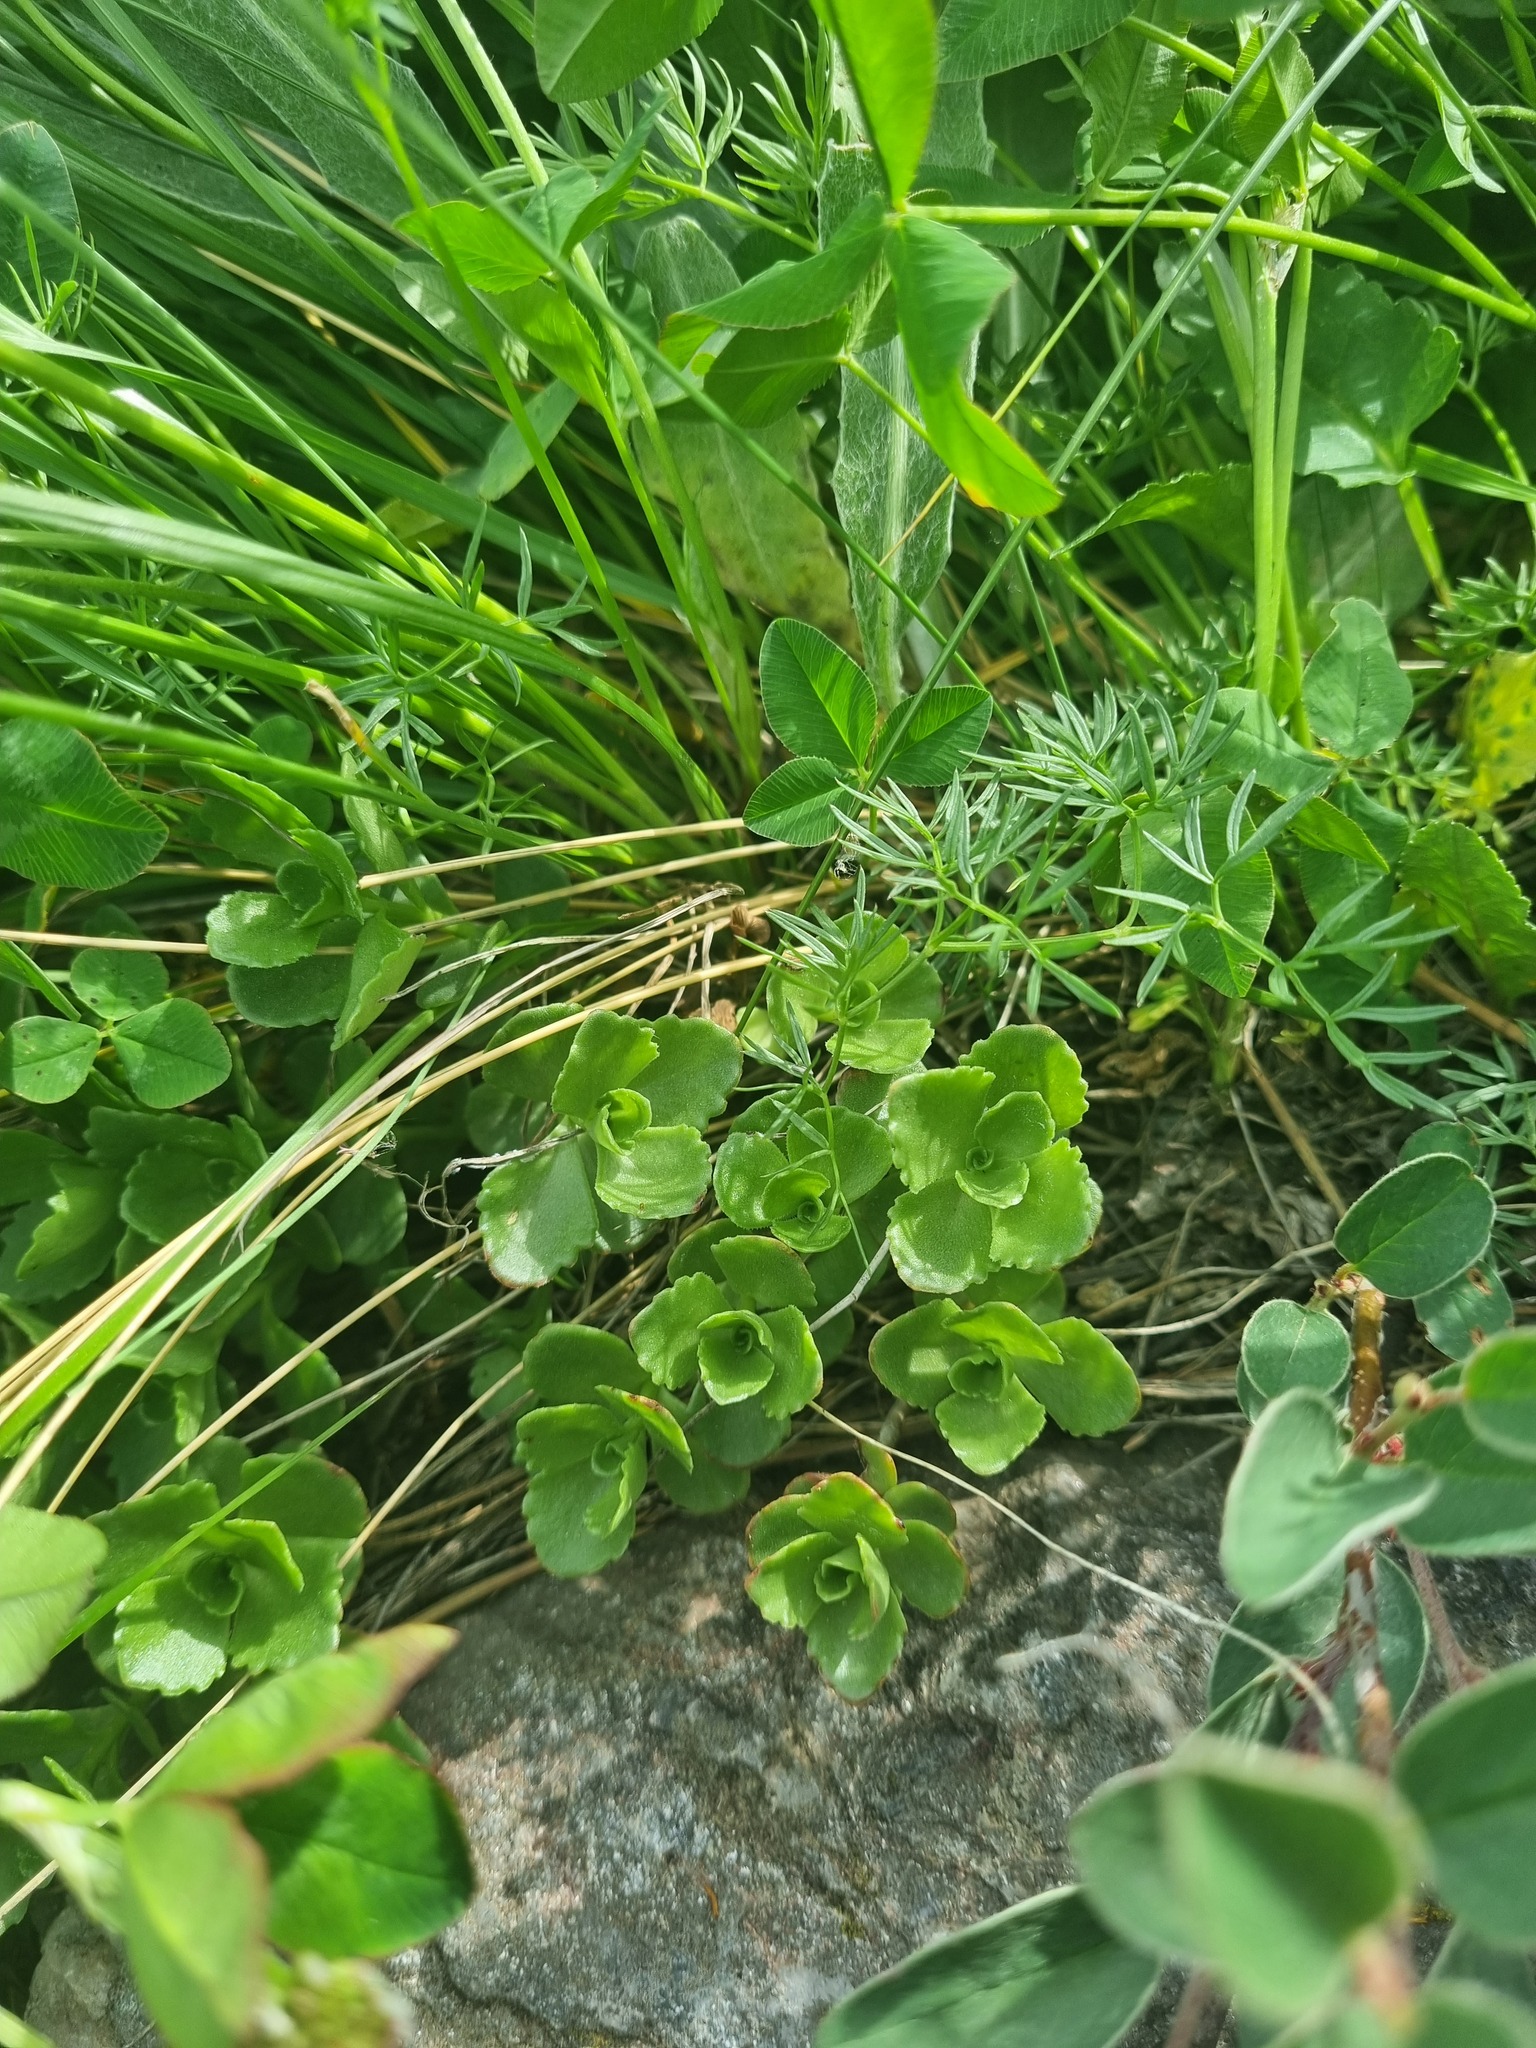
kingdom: Plantae
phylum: Tracheophyta
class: Magnoliopsida
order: Saxifragales
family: Crassulaceae
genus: Phedimus
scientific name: Phedimus spurius
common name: Caucasian stonecrop
